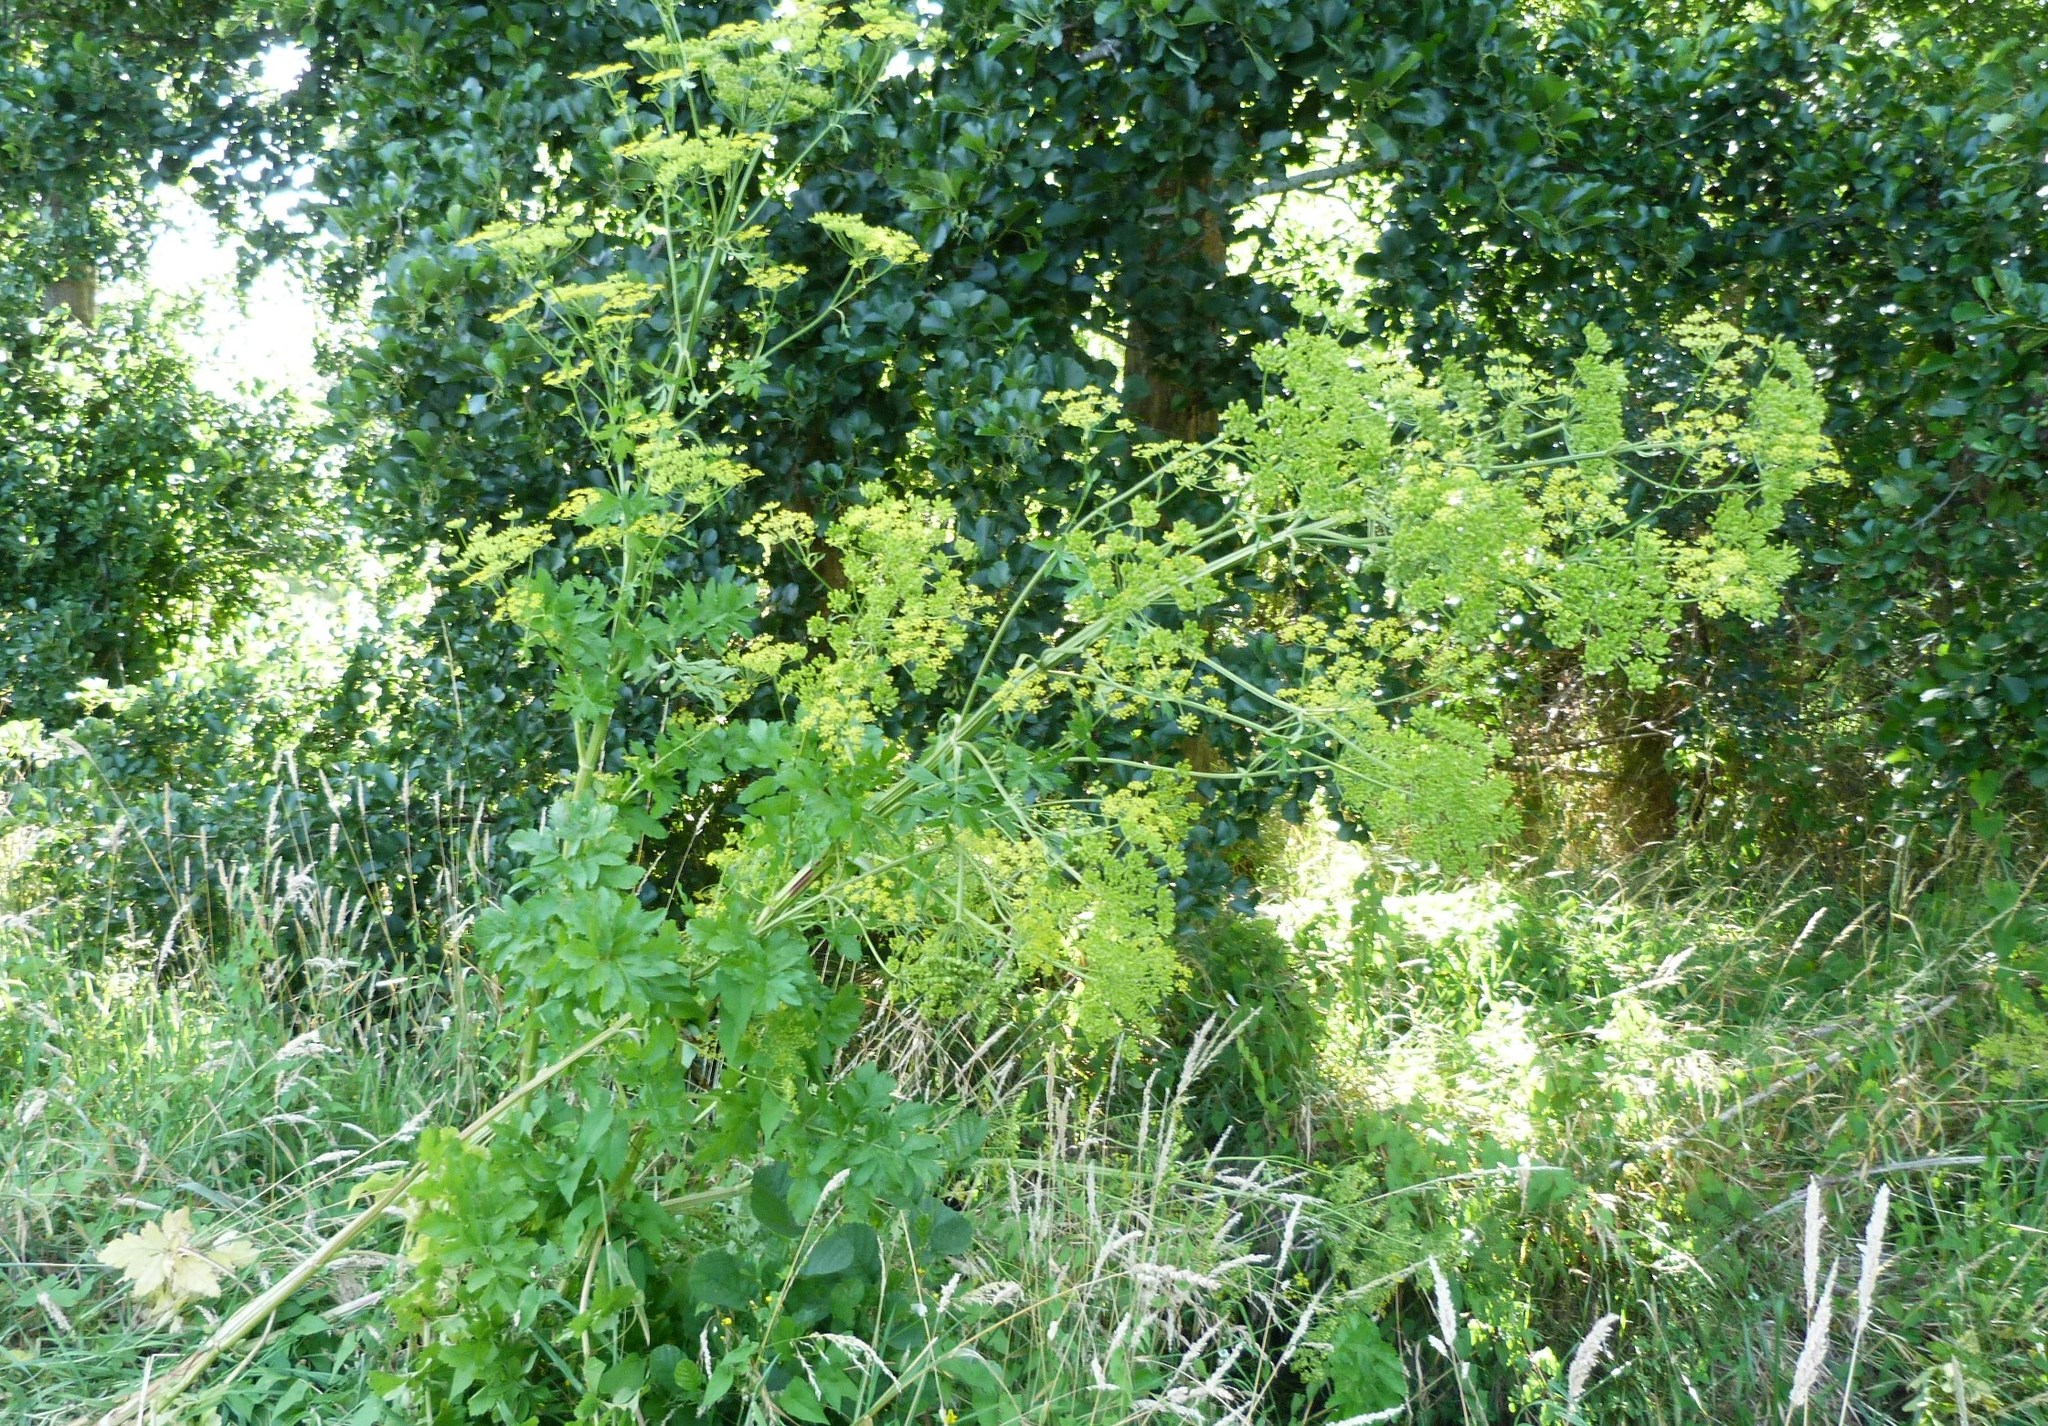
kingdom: Plantae
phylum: Tracheophyta
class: Magnoliopsida
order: Apiales
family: Apiaceae
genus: Pastinaca
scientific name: Pastinaca sativa
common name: Wild parsnip
